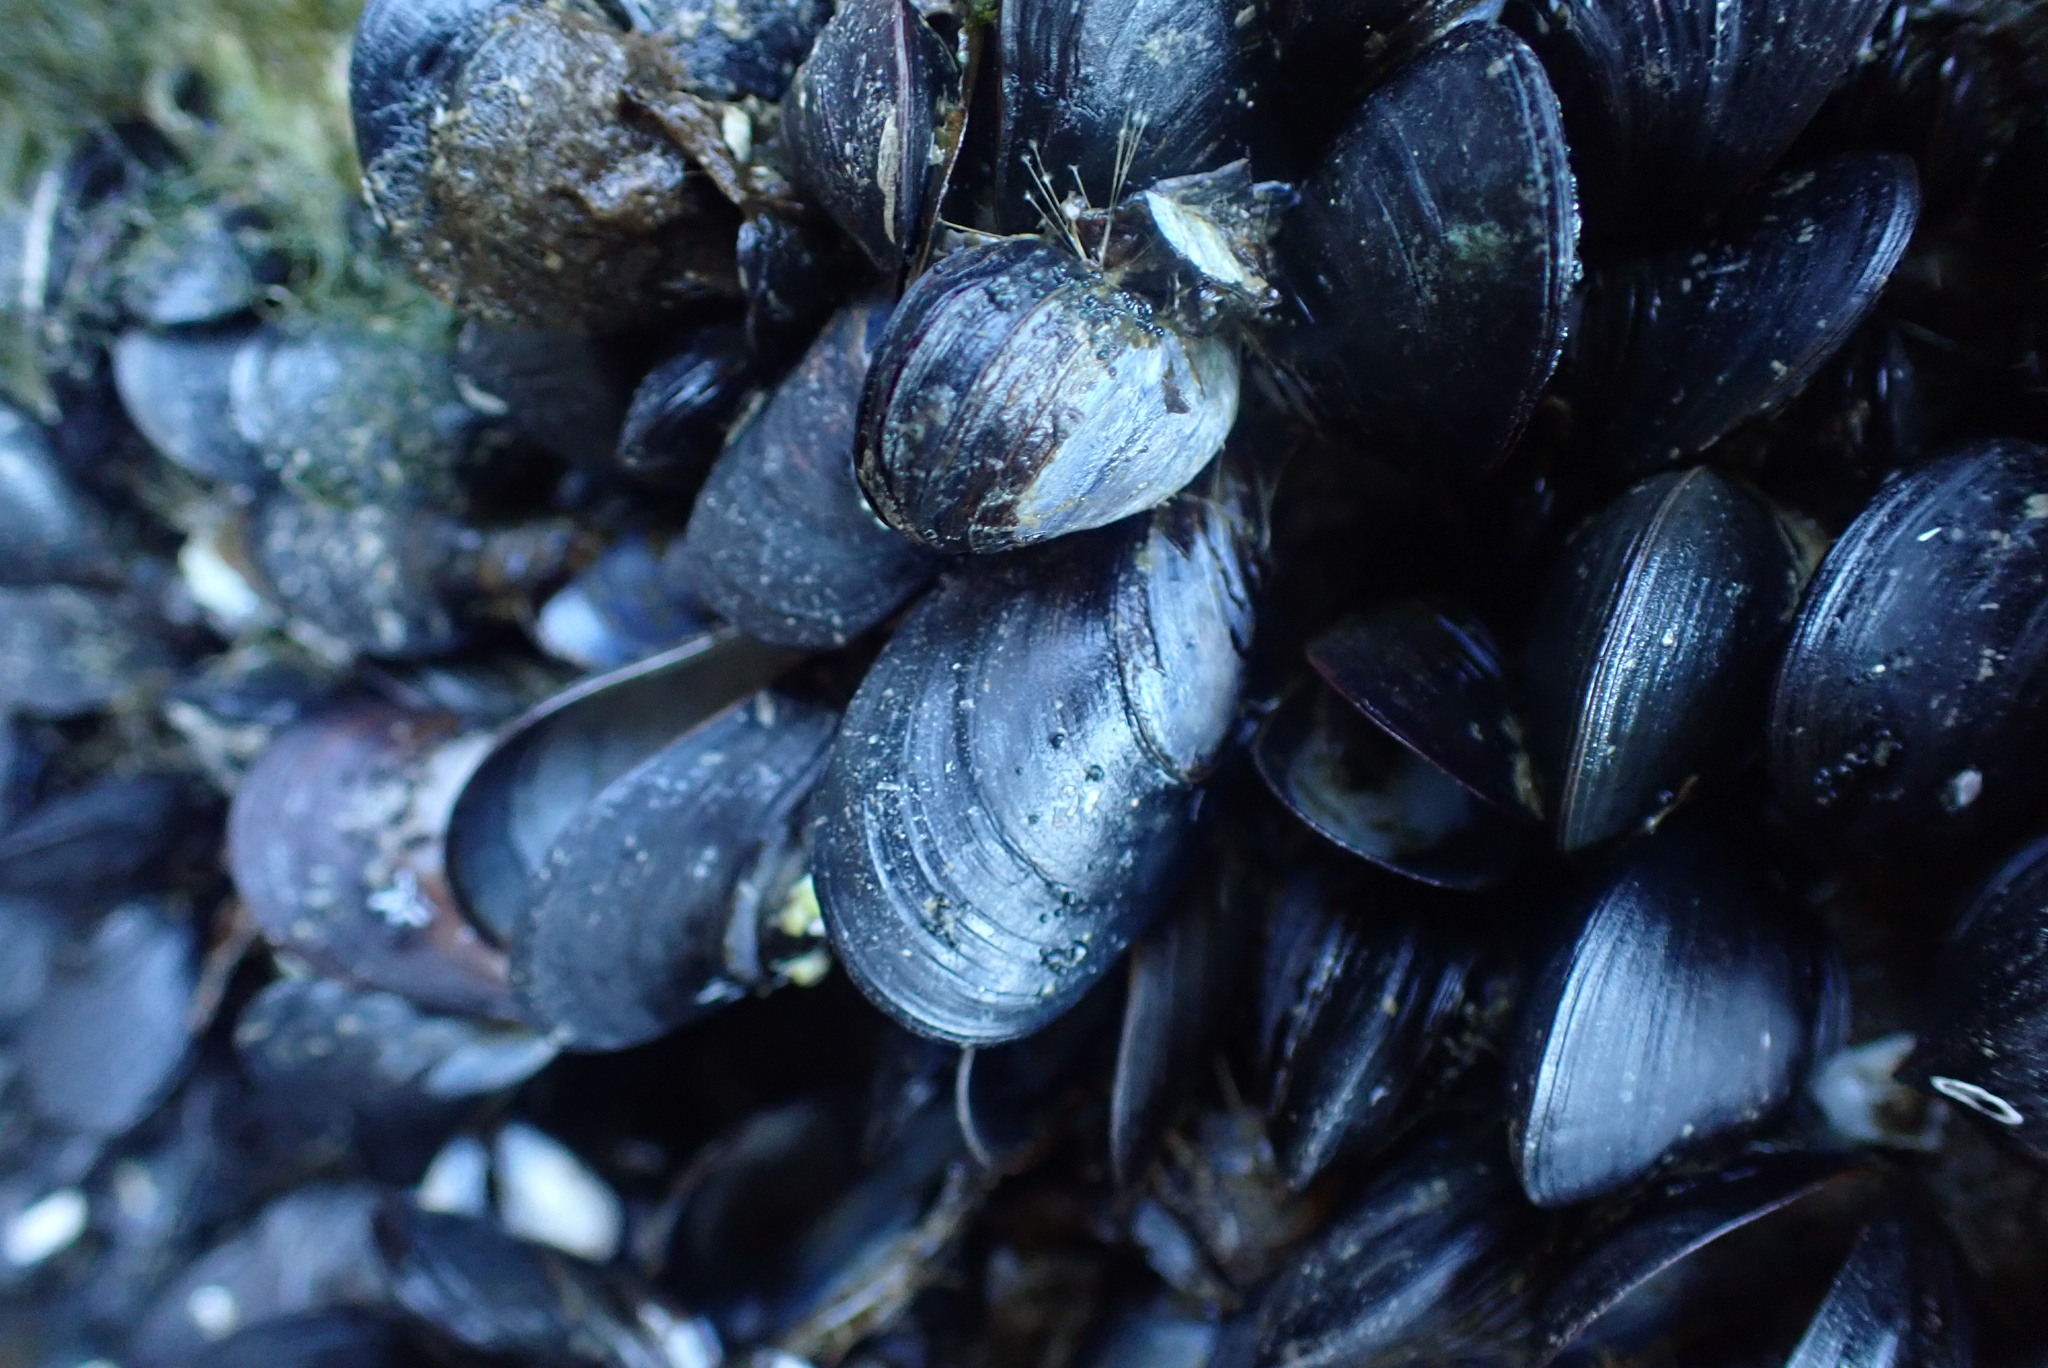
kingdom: Animalia
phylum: Mollusca
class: Bivalvia
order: Mytilida
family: Mytilidae
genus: Mytilus
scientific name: Mytilus trossulus
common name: Northern blue mussel
